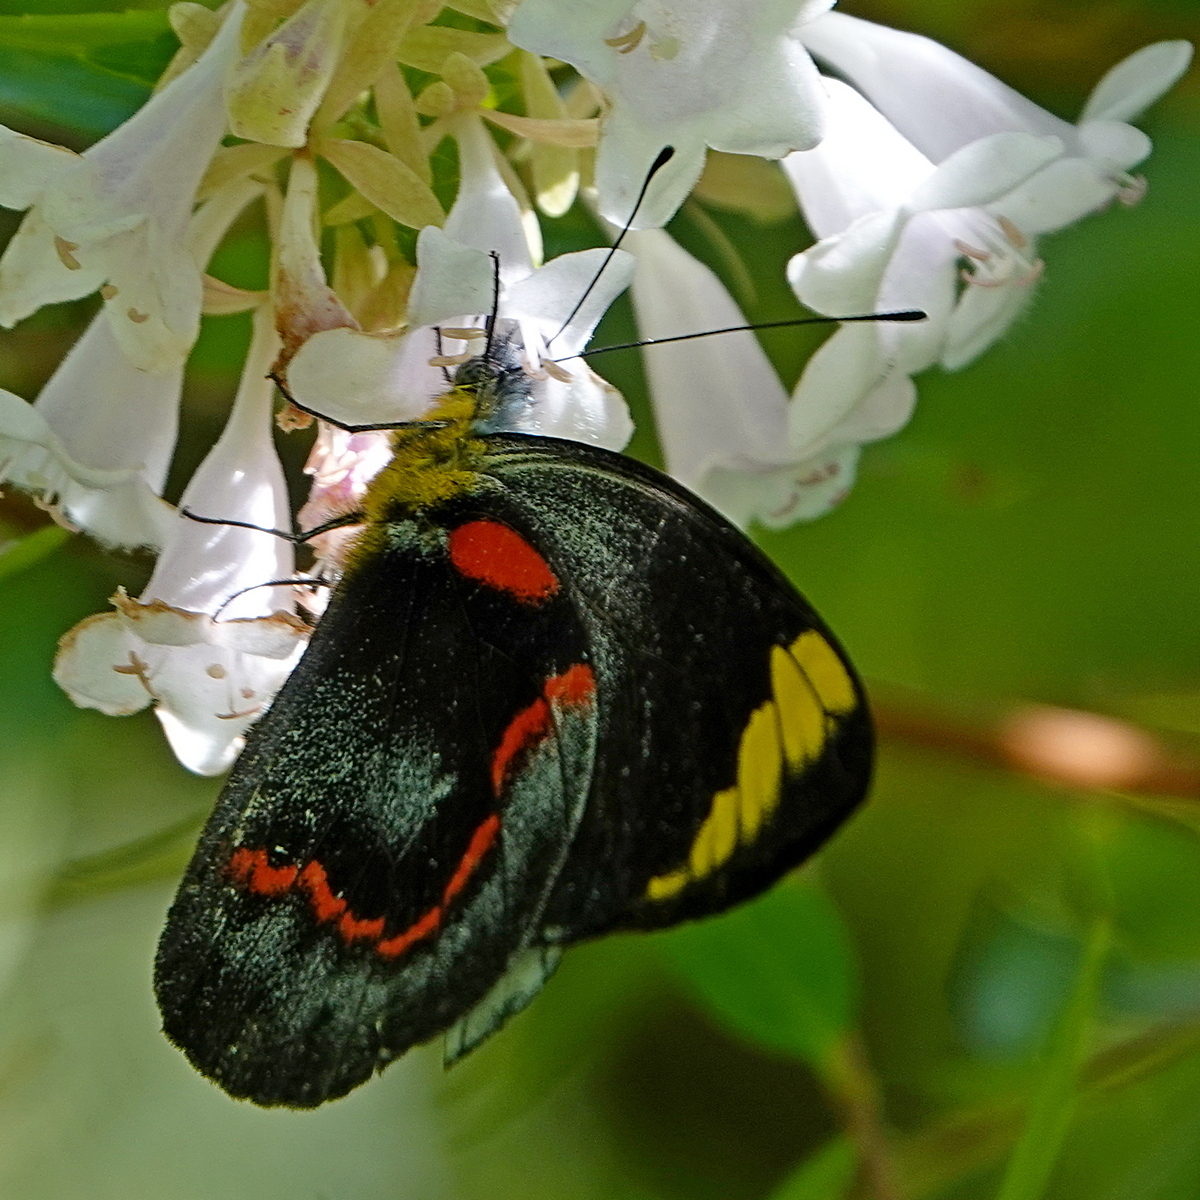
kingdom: Animalia
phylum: Arthropoda
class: Insecta
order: Lepidoptera
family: Pieridae
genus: Delias
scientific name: Delias nigrina
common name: Black jezebel
